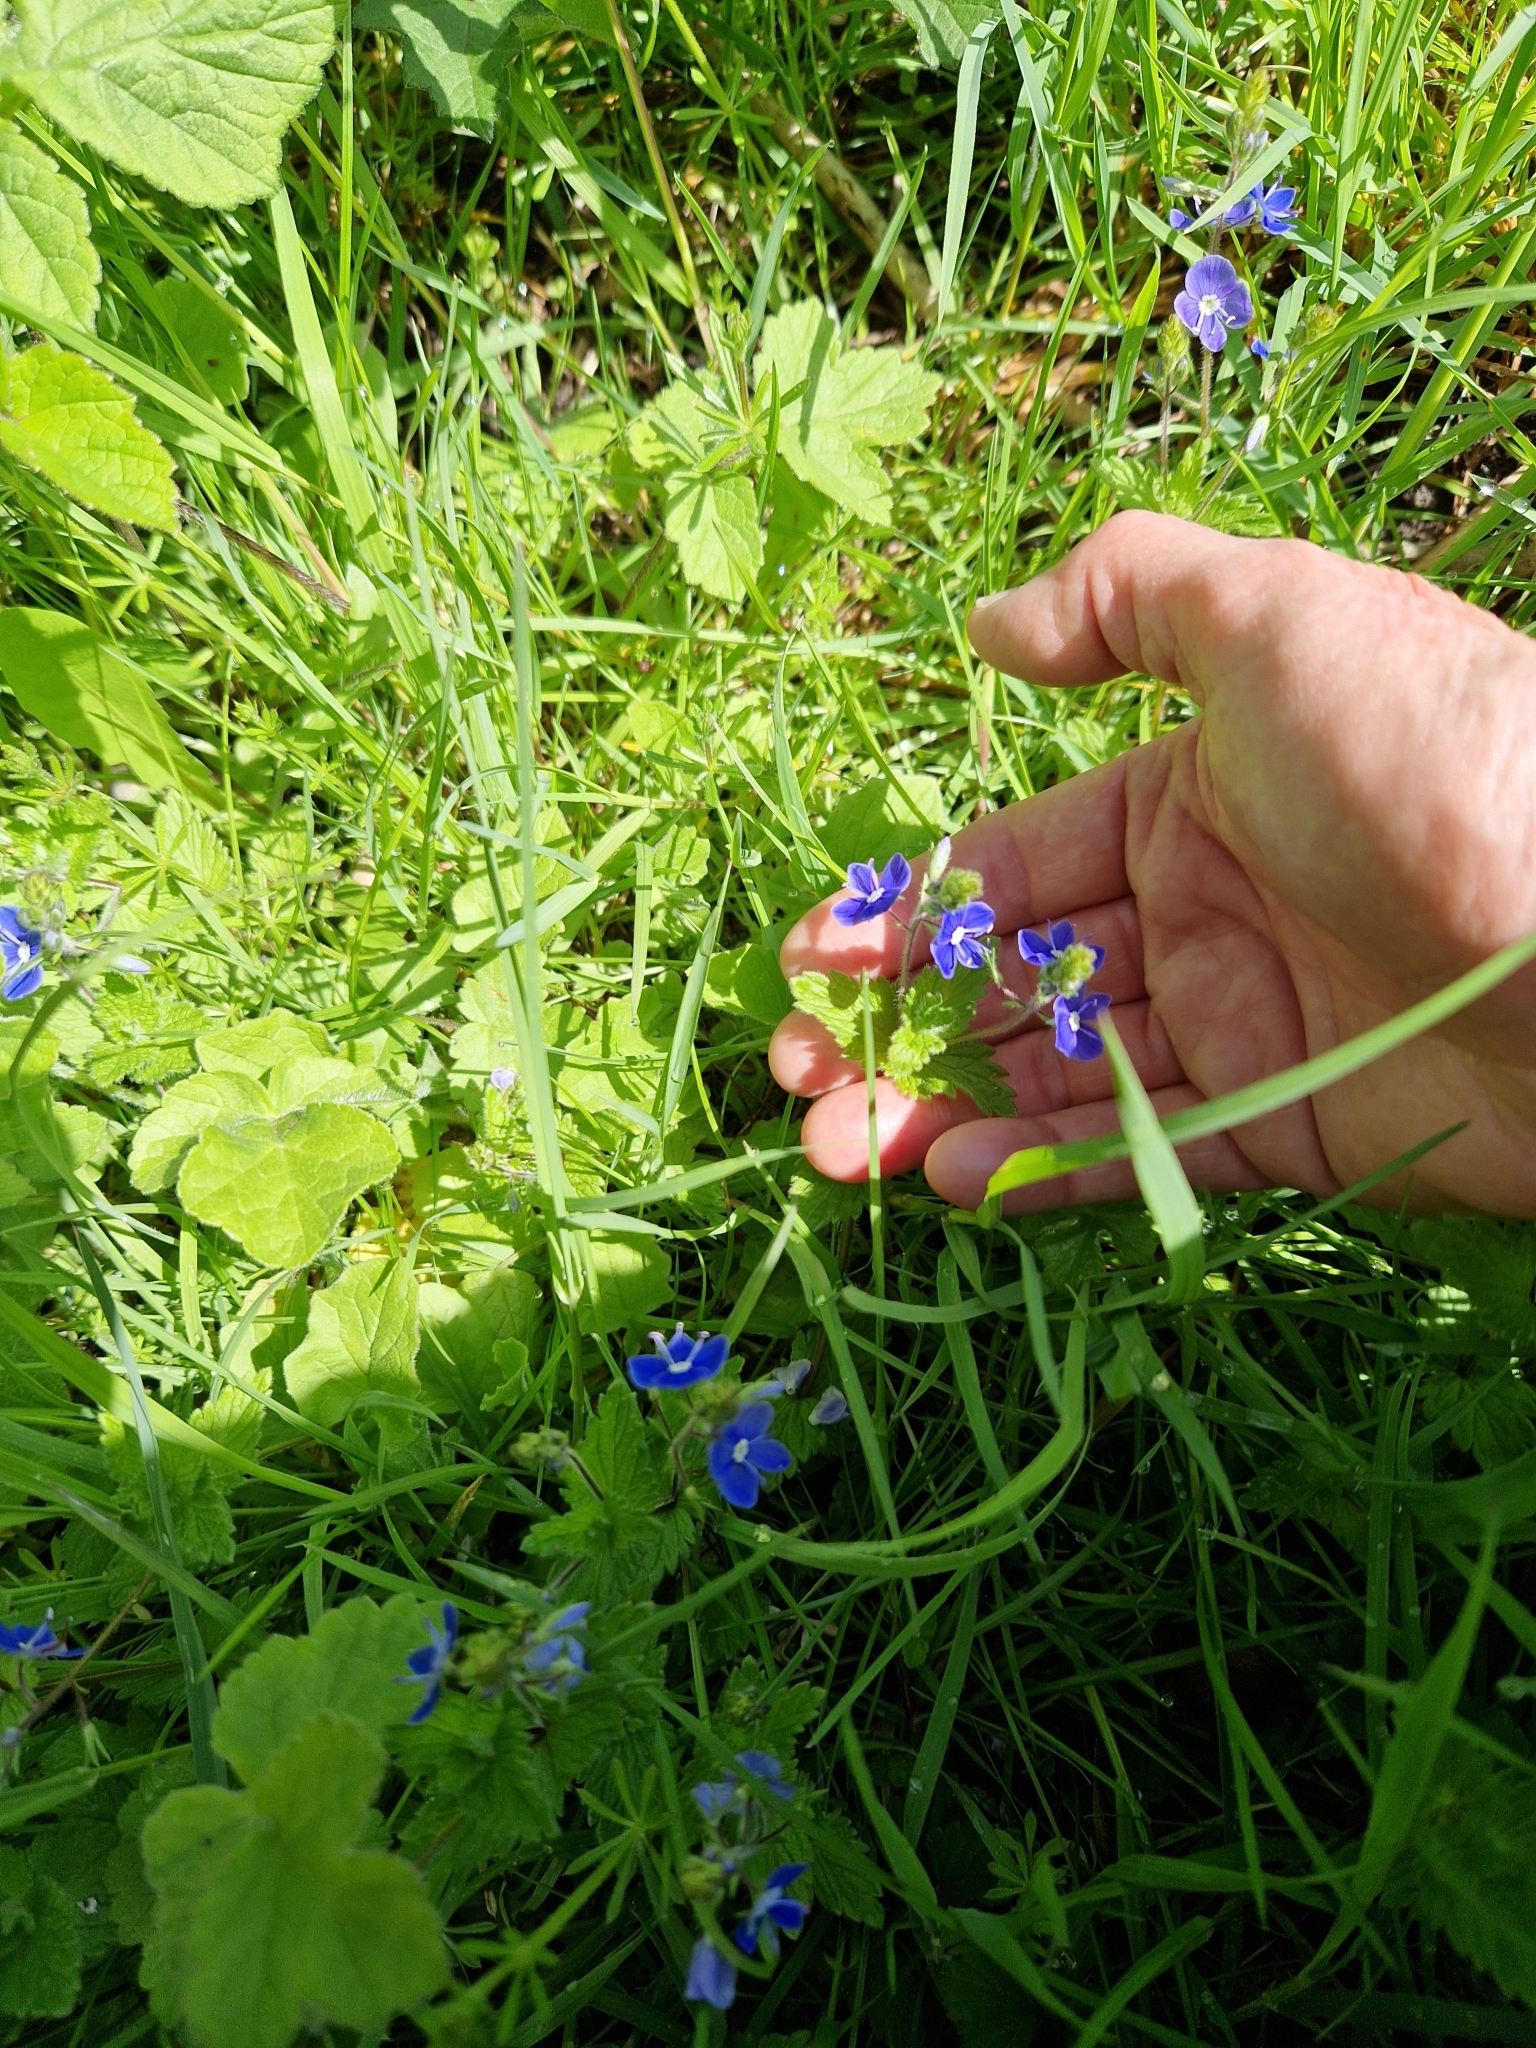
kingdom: Plantae
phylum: Tracheophyta
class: Magnoliopsida
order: Lamiales
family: Plantaginaceae
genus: Veronica
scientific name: Veronica chamaedrys
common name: Germander speedwell
